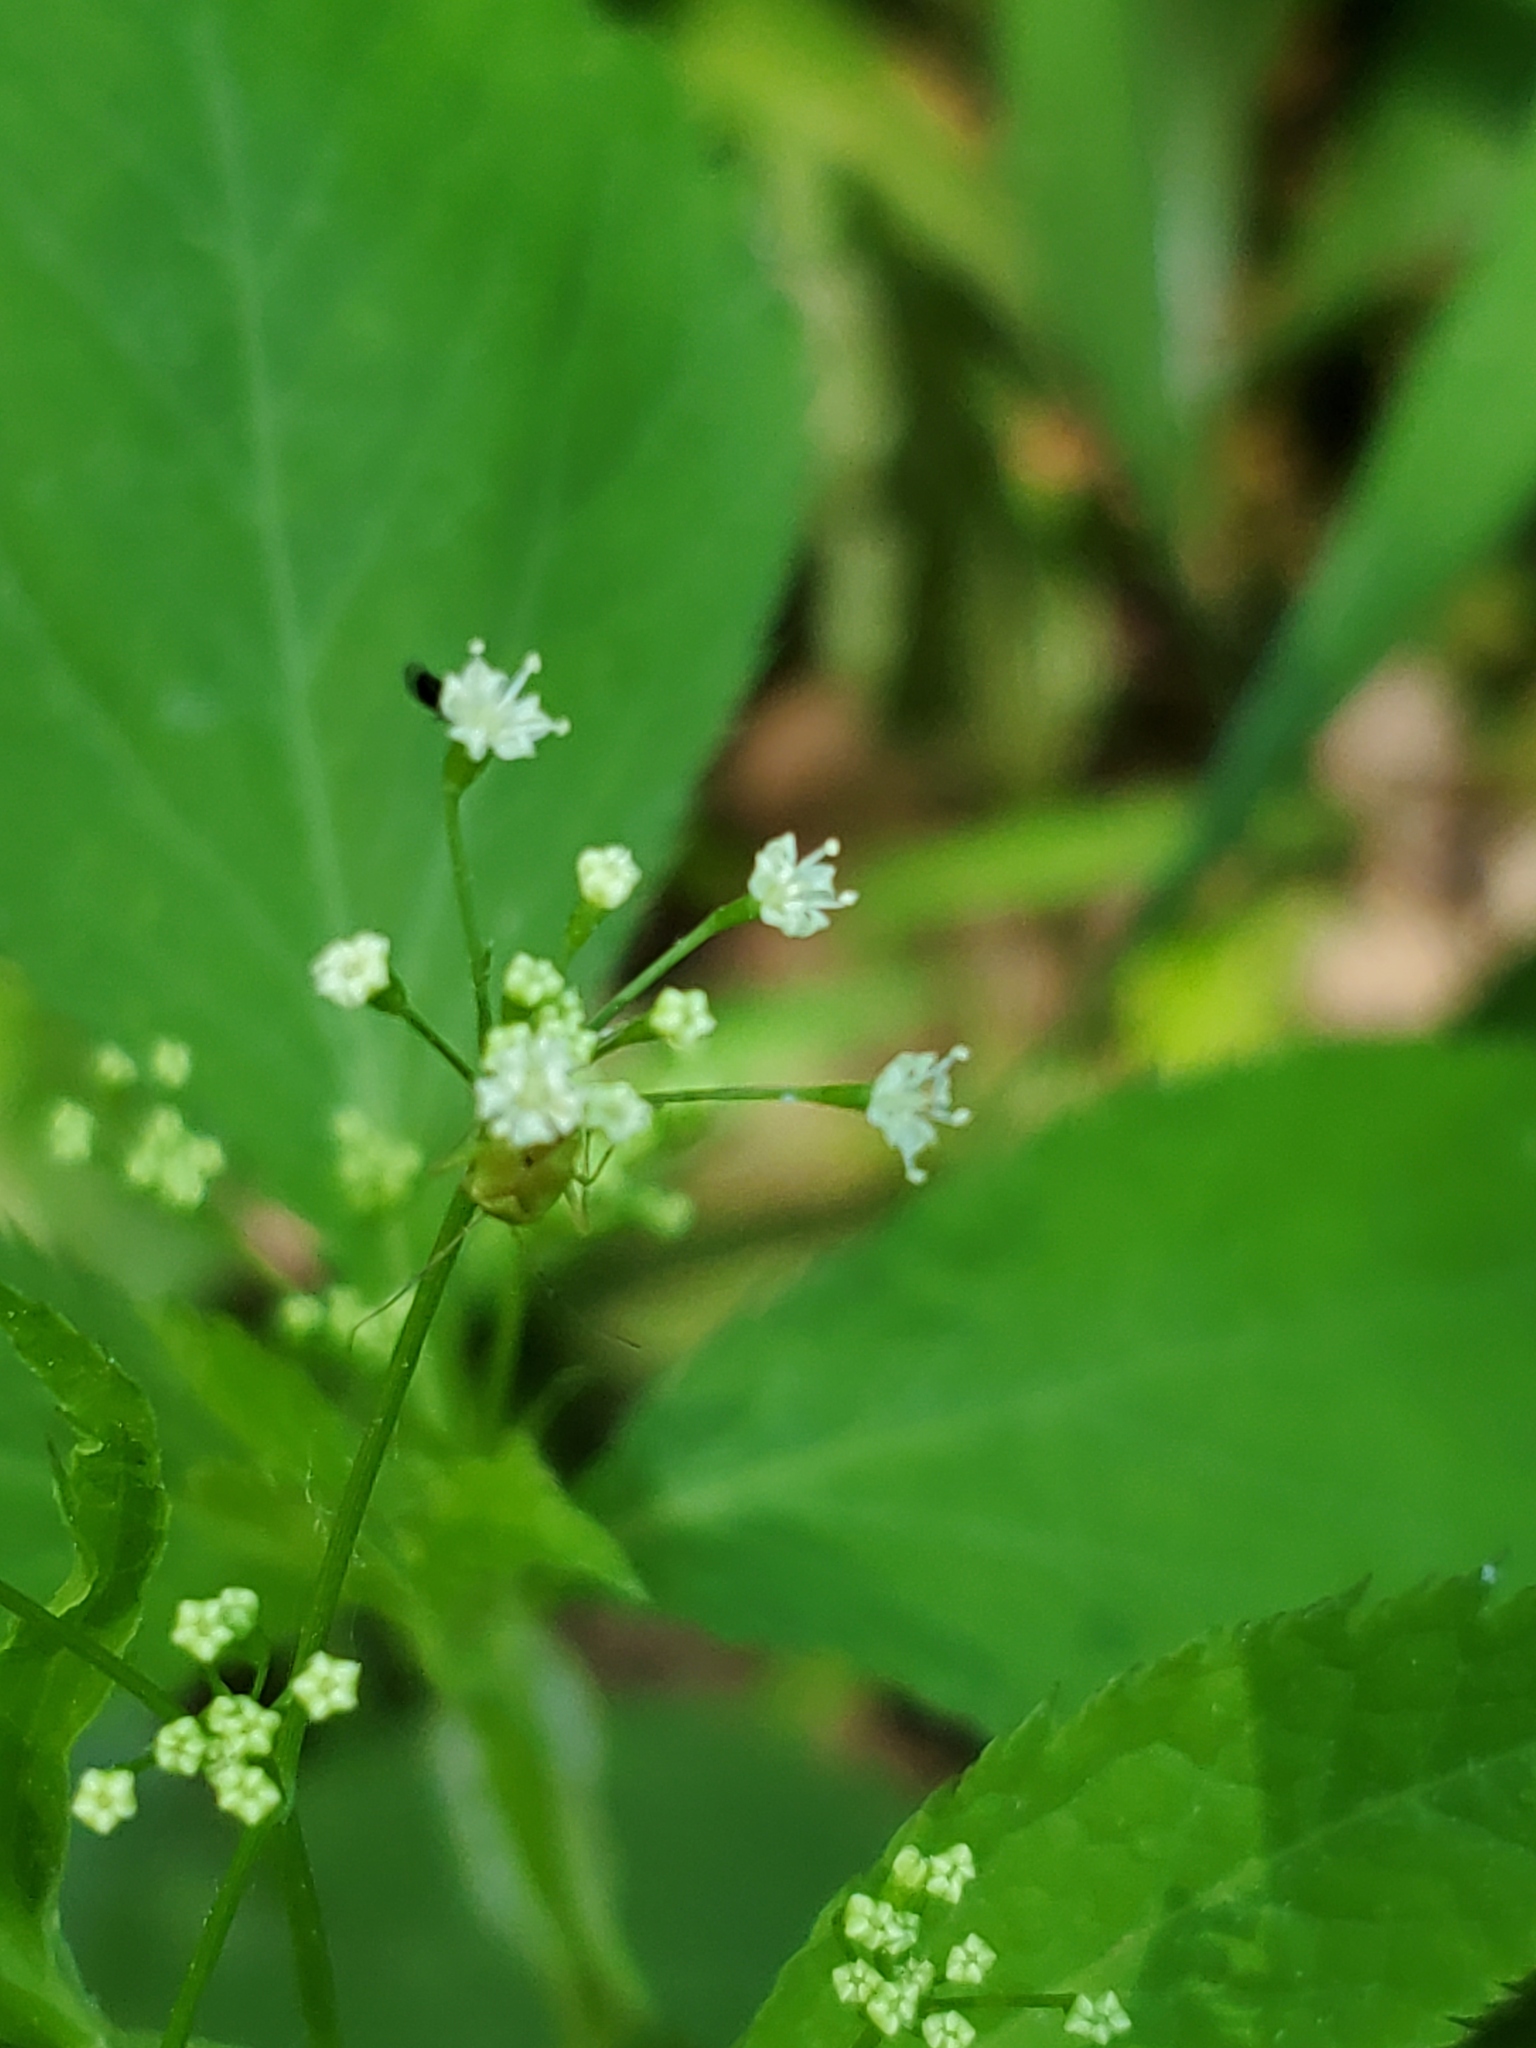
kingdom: Plantae
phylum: Tracheophyta
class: Magnoliopsida
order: Apiales
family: Apiaceae
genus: Cryptotaenia
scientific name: Cryptotaenia canadensis
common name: Honewort
